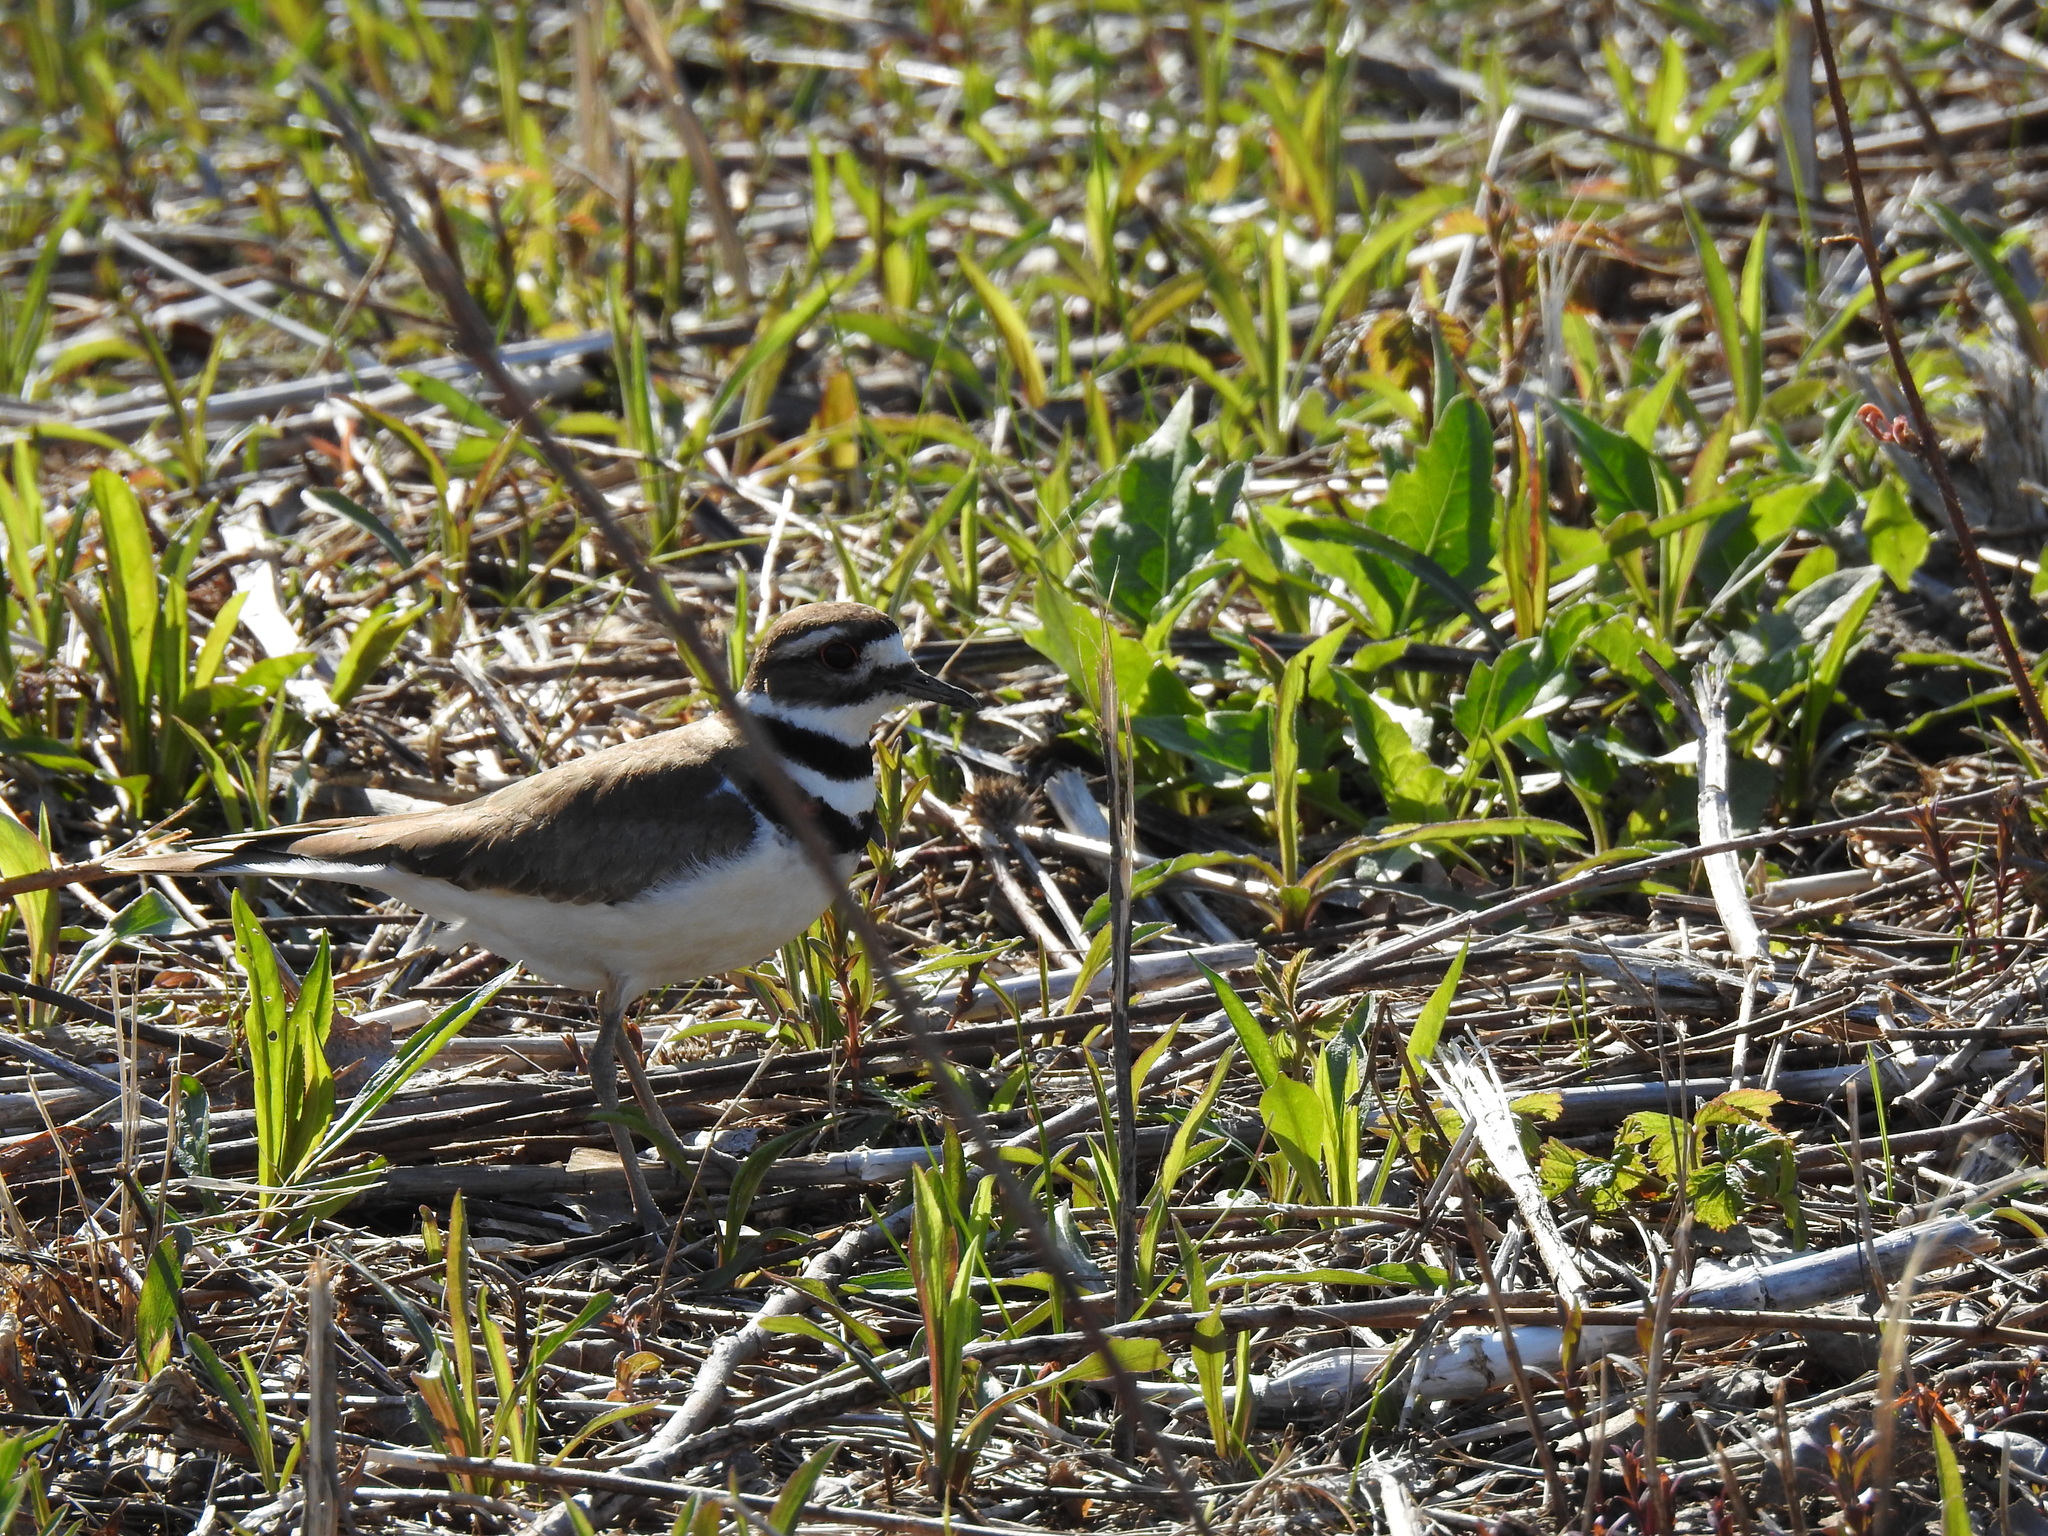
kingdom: Animalia
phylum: Chordata
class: Aves
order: Charadriiformes
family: Charadriidae
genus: Charadrius
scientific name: Charadrius vociferus
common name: Killdeer
